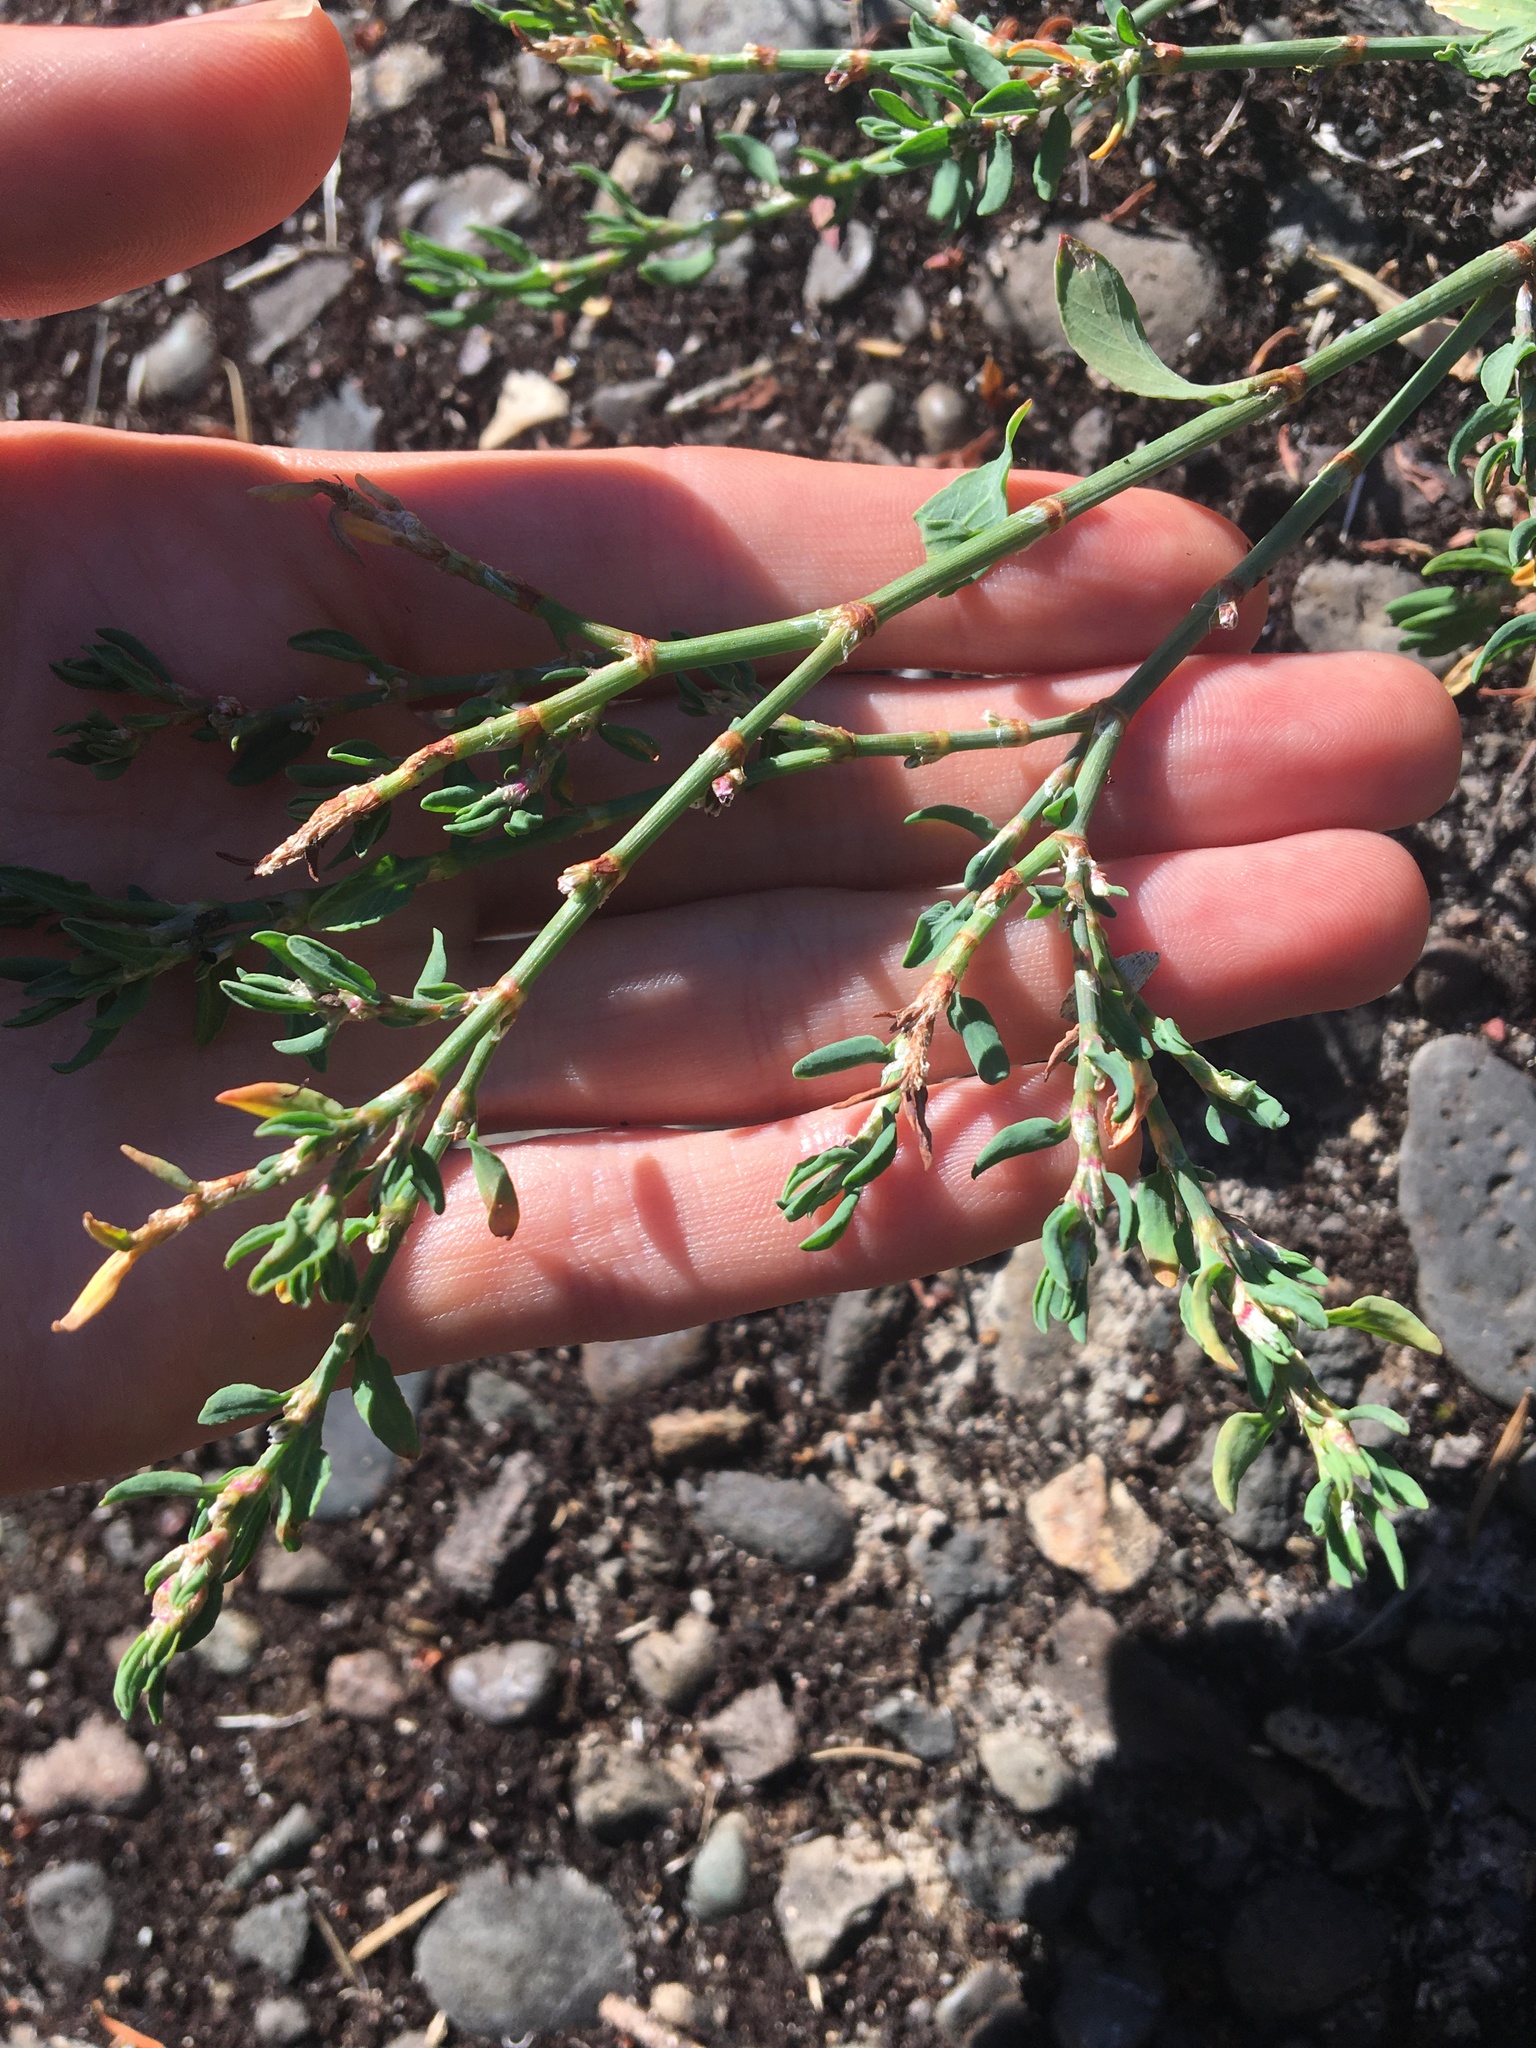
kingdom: Plantae
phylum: Tracheophyta
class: Magnoliopsida
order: Caryophyllales
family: Polygonaceae
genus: Polygonum
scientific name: Polygonum aviculare
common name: Prostrate knotweed
